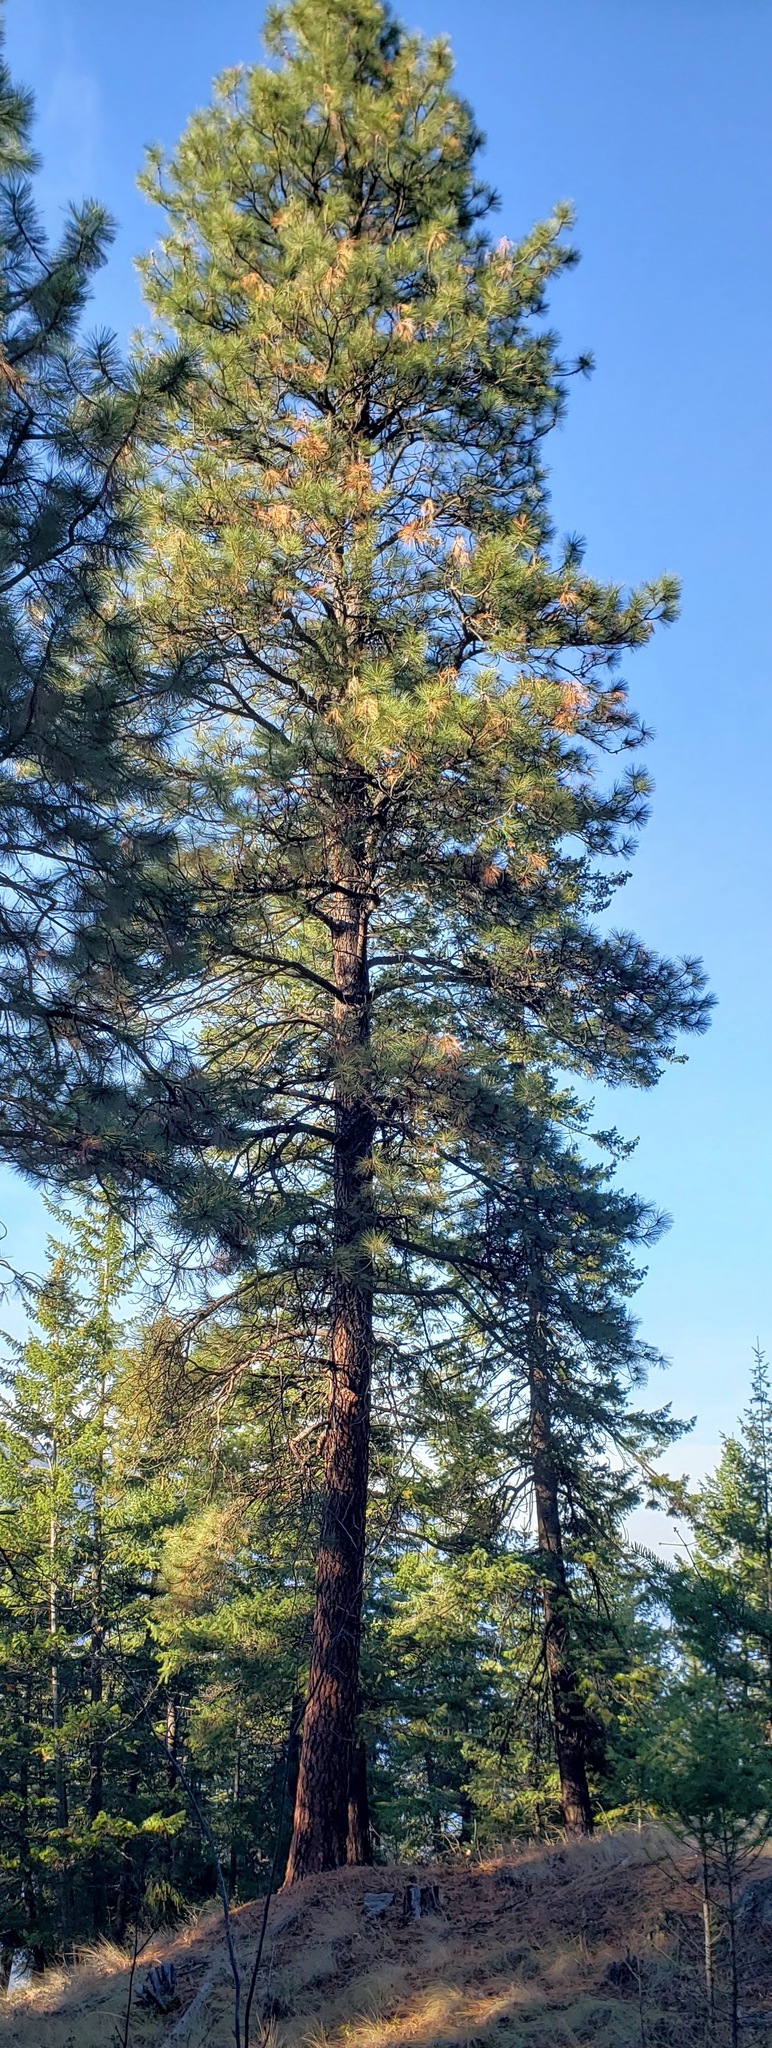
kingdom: Plantae
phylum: Tracheophyta
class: Pinopsida
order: Pinales
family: Pinaceae
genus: Pinus
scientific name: Pinus ponderosa
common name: Western yellow-pine
